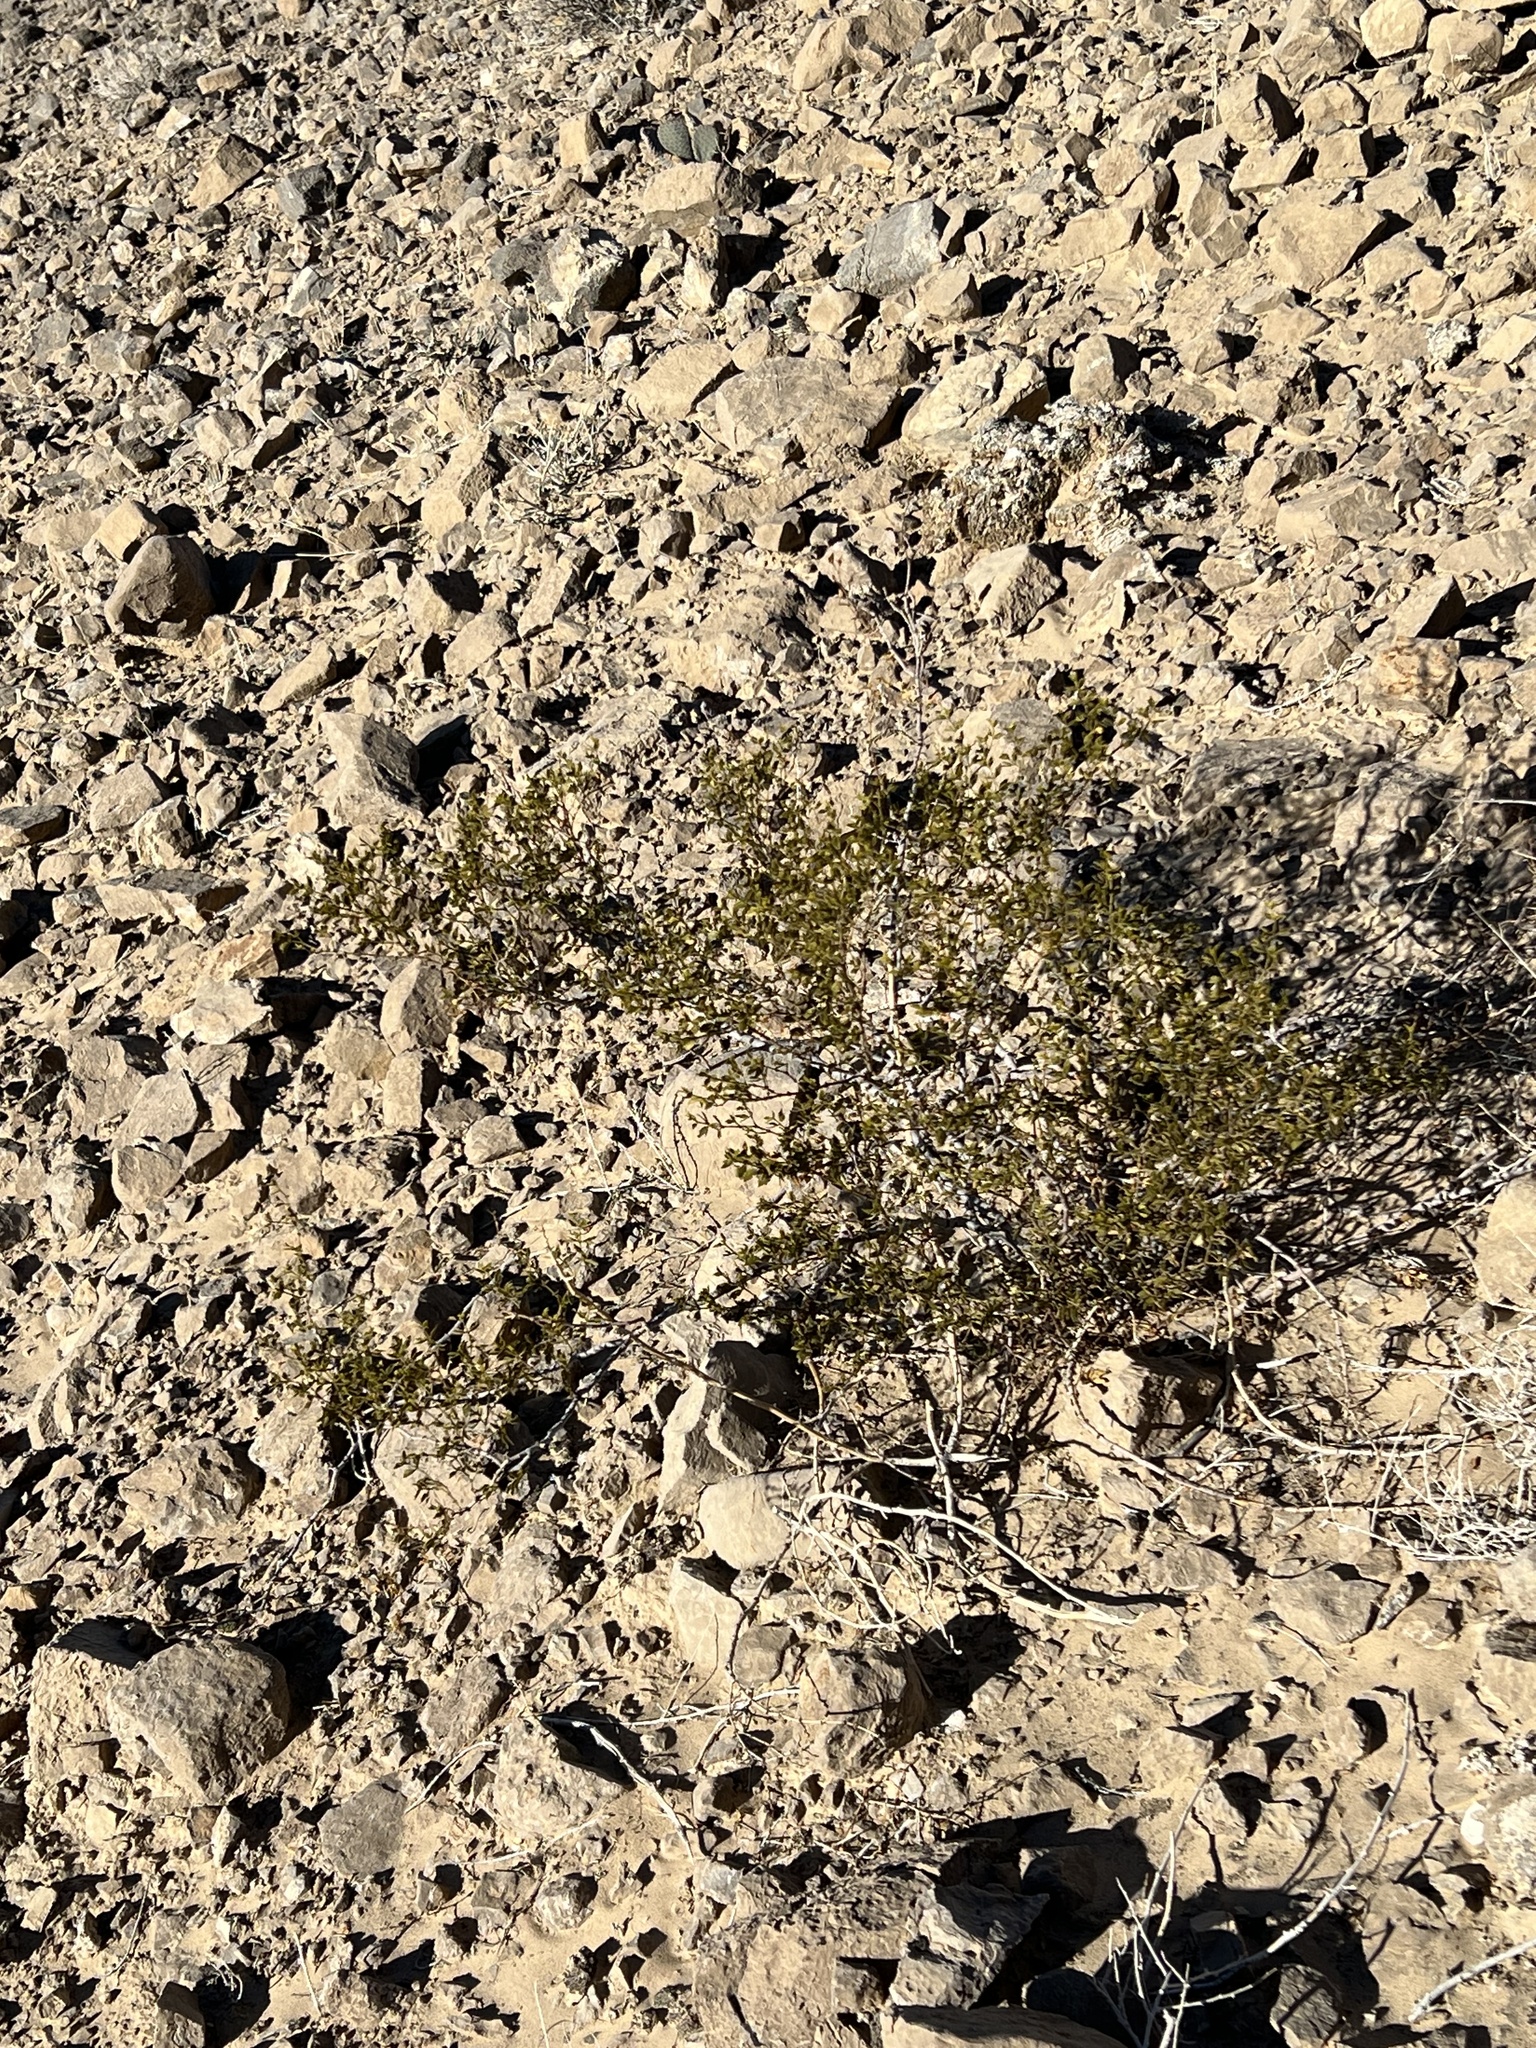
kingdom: Plantae
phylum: Tracheophyta
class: Magnoliopsida
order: Zygophyllales
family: Zygophyllaceae
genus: Larrea
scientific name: Larrea tridentata
